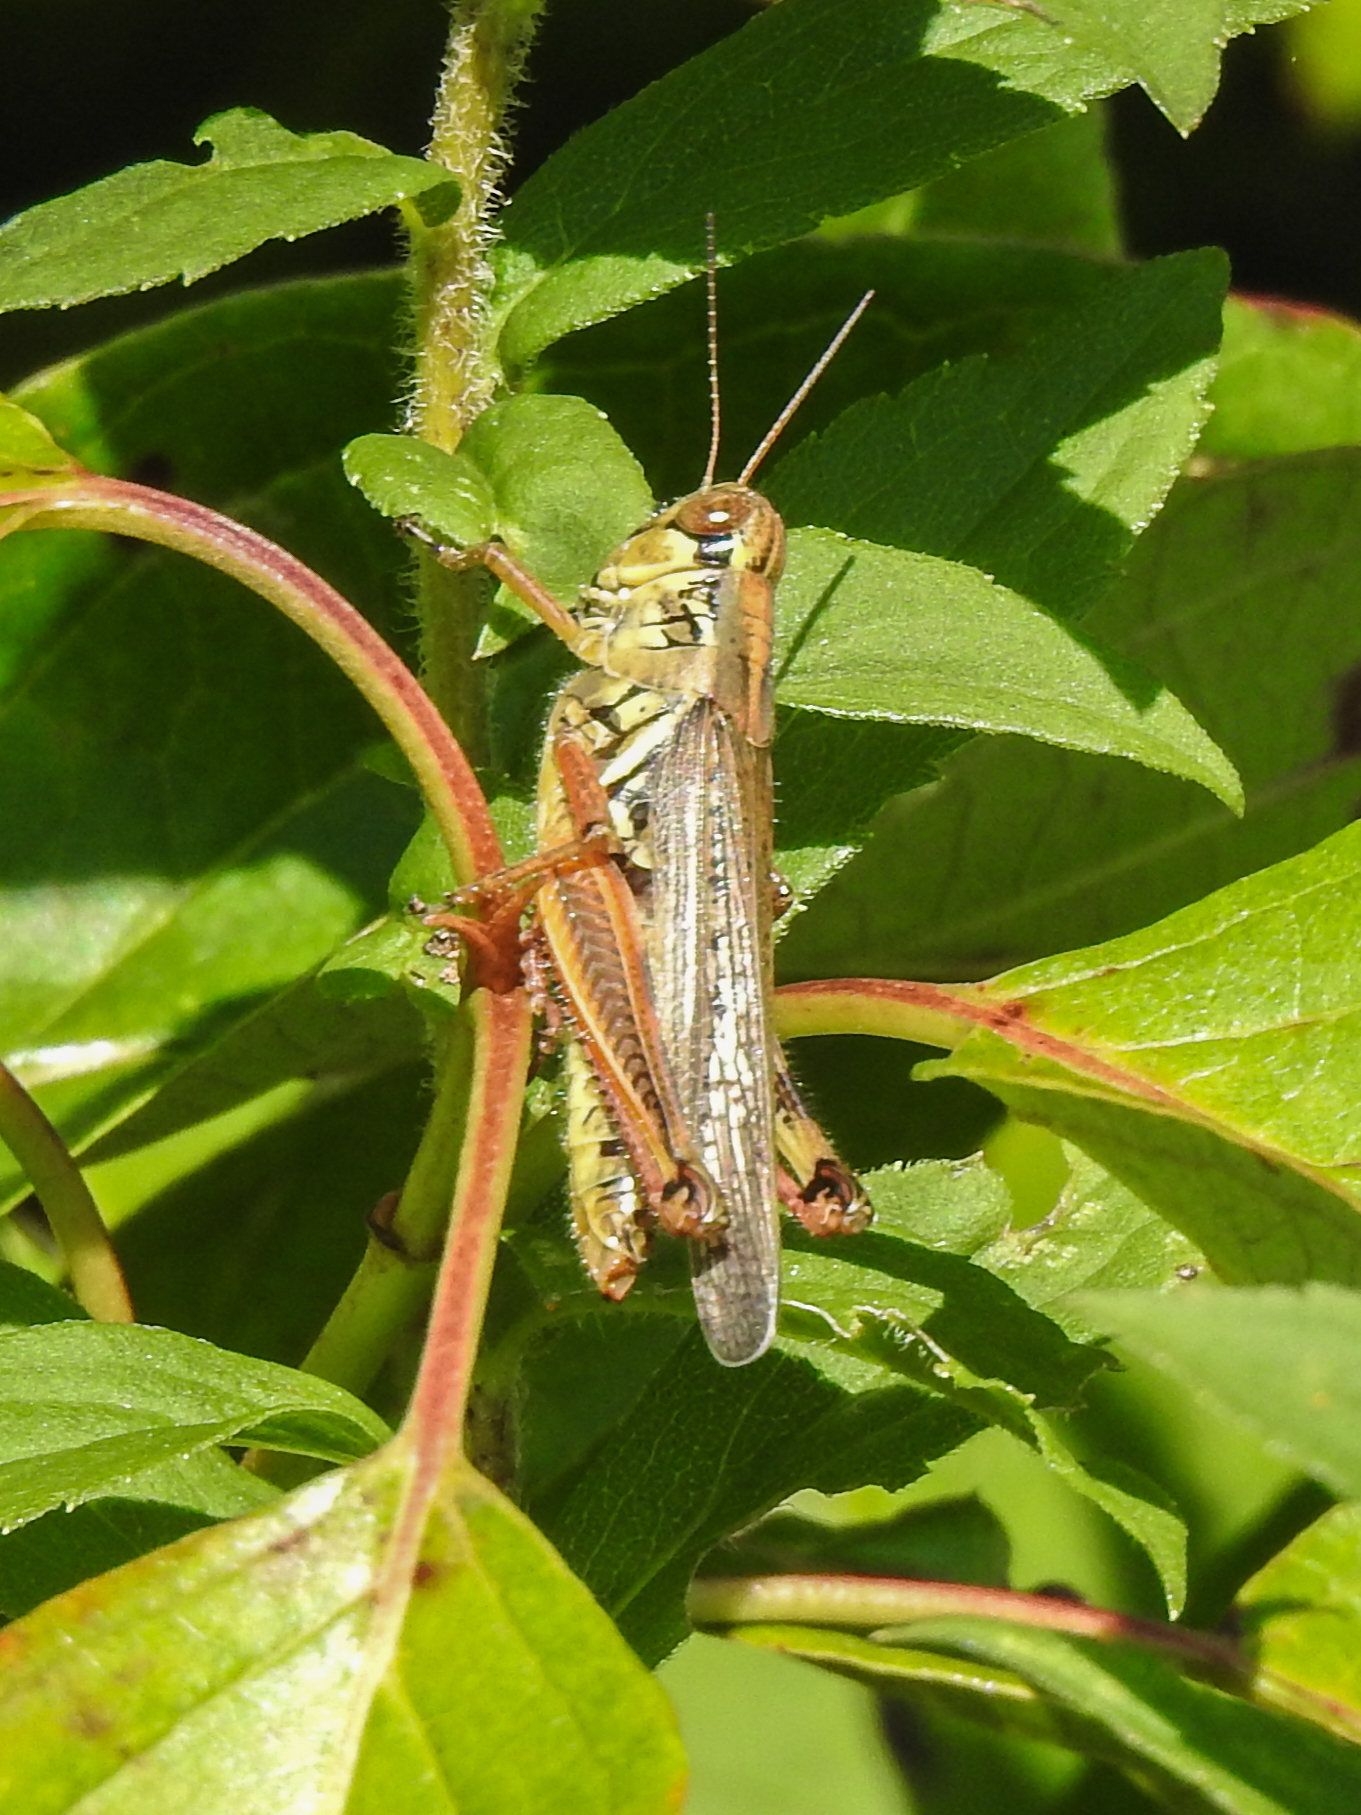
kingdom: Animalia
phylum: Arthropoda
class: Insecta
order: Orthoptera
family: Acrididae
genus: Melanoplus
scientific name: Melanoplus femurrubrum
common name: Red-legged grasshopper
